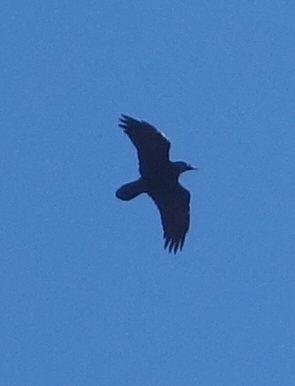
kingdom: Animalia
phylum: Chordata
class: Aves
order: Passeriformes
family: Corvidae
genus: Corvus
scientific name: Corvus corax
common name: Common raven
